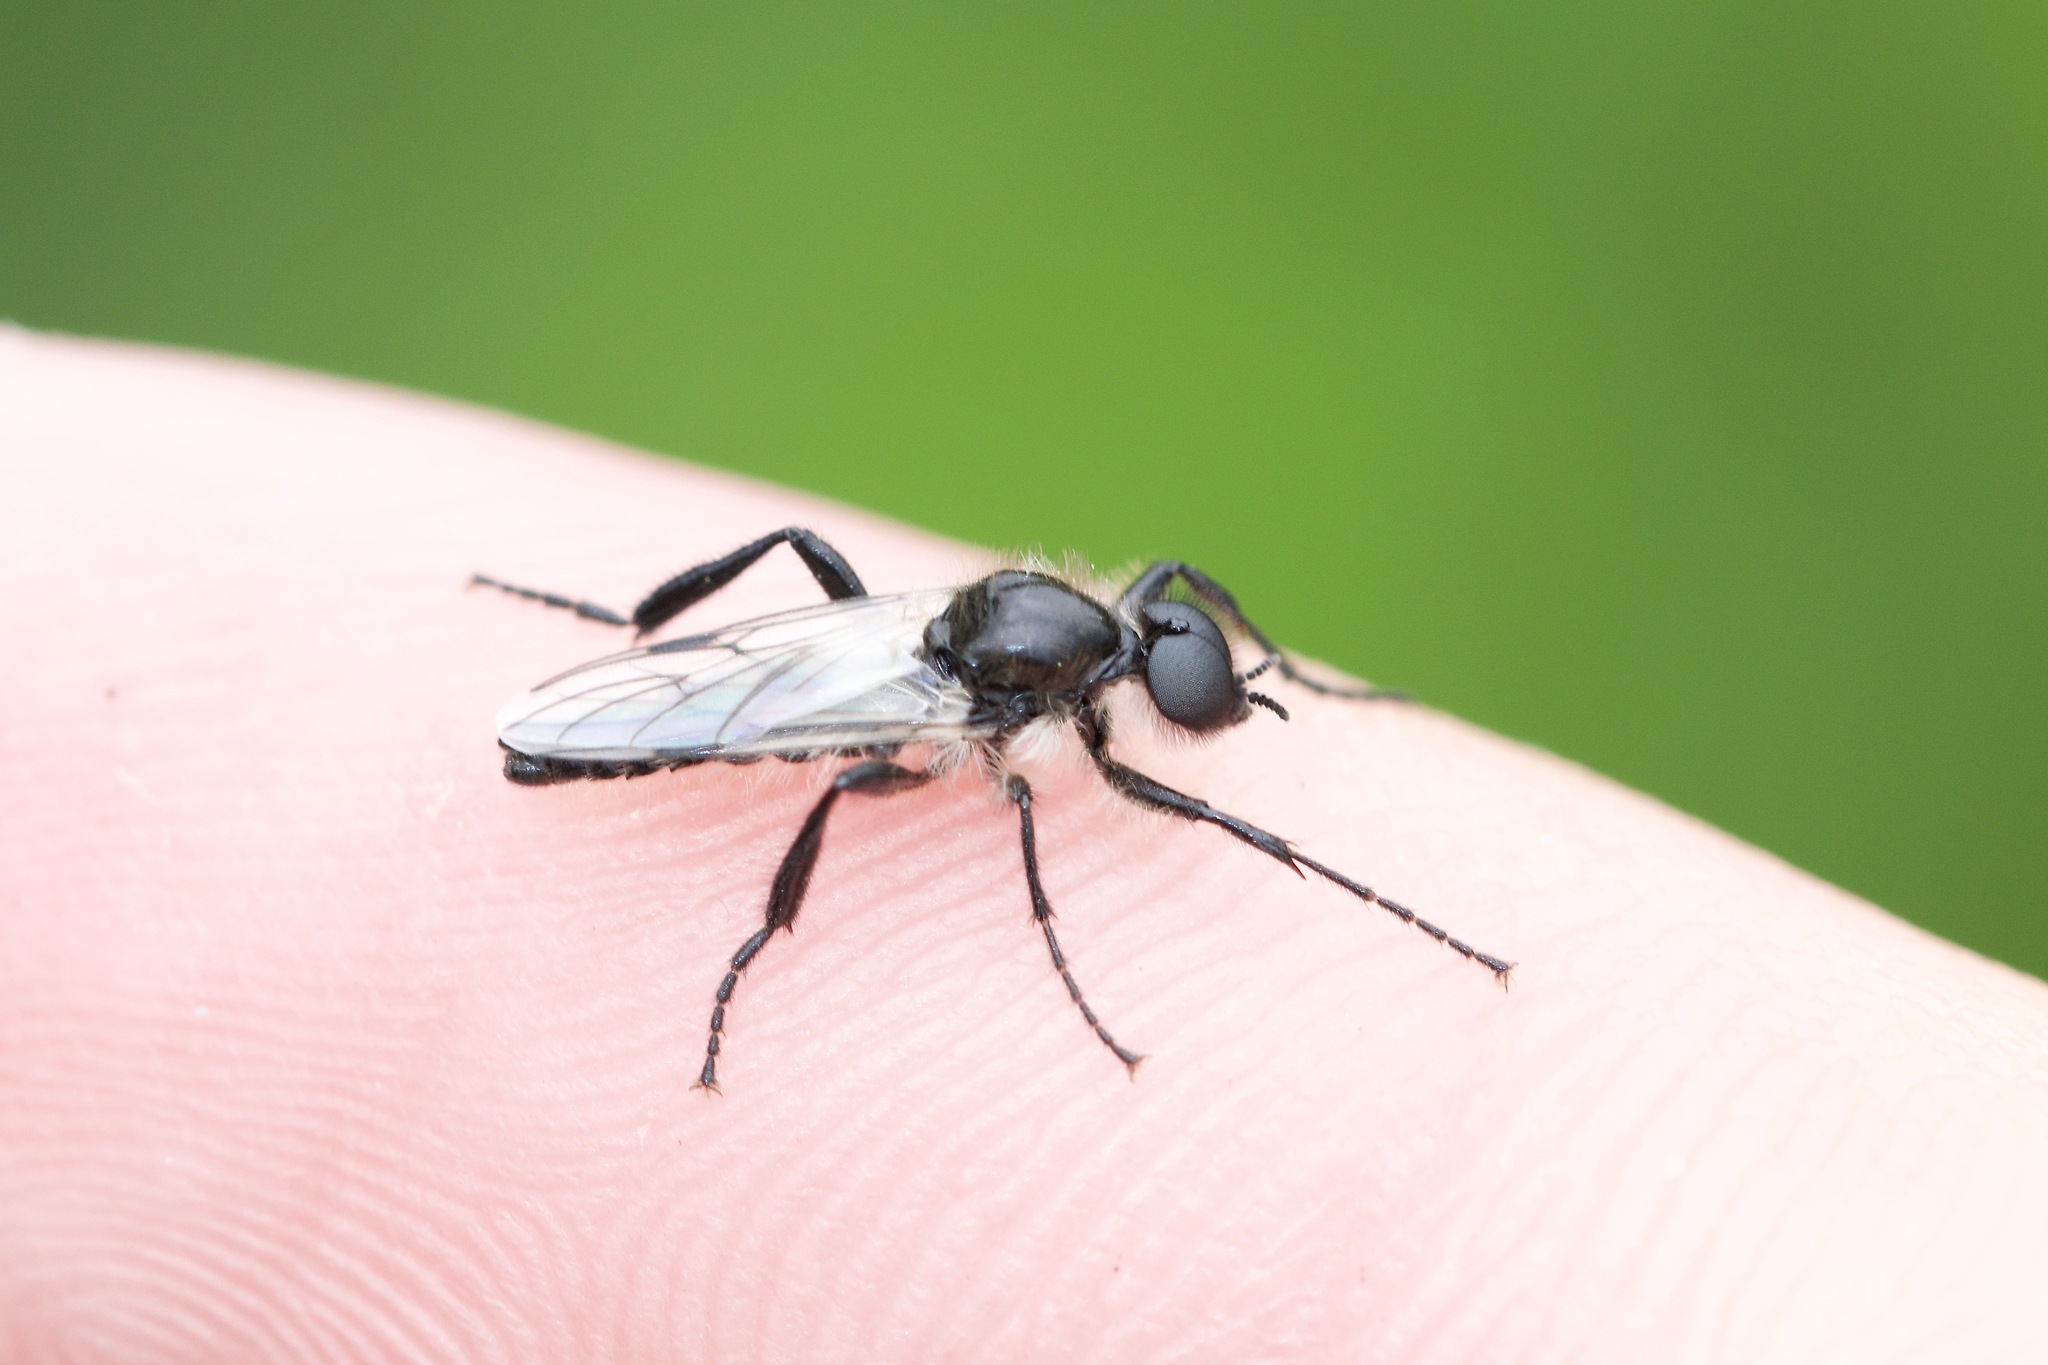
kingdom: Animalia
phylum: Arthropoda
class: Insecta
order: Diptera
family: Bibionidae
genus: Bibio
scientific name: Bibio albipennis
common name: White-winged march fly
